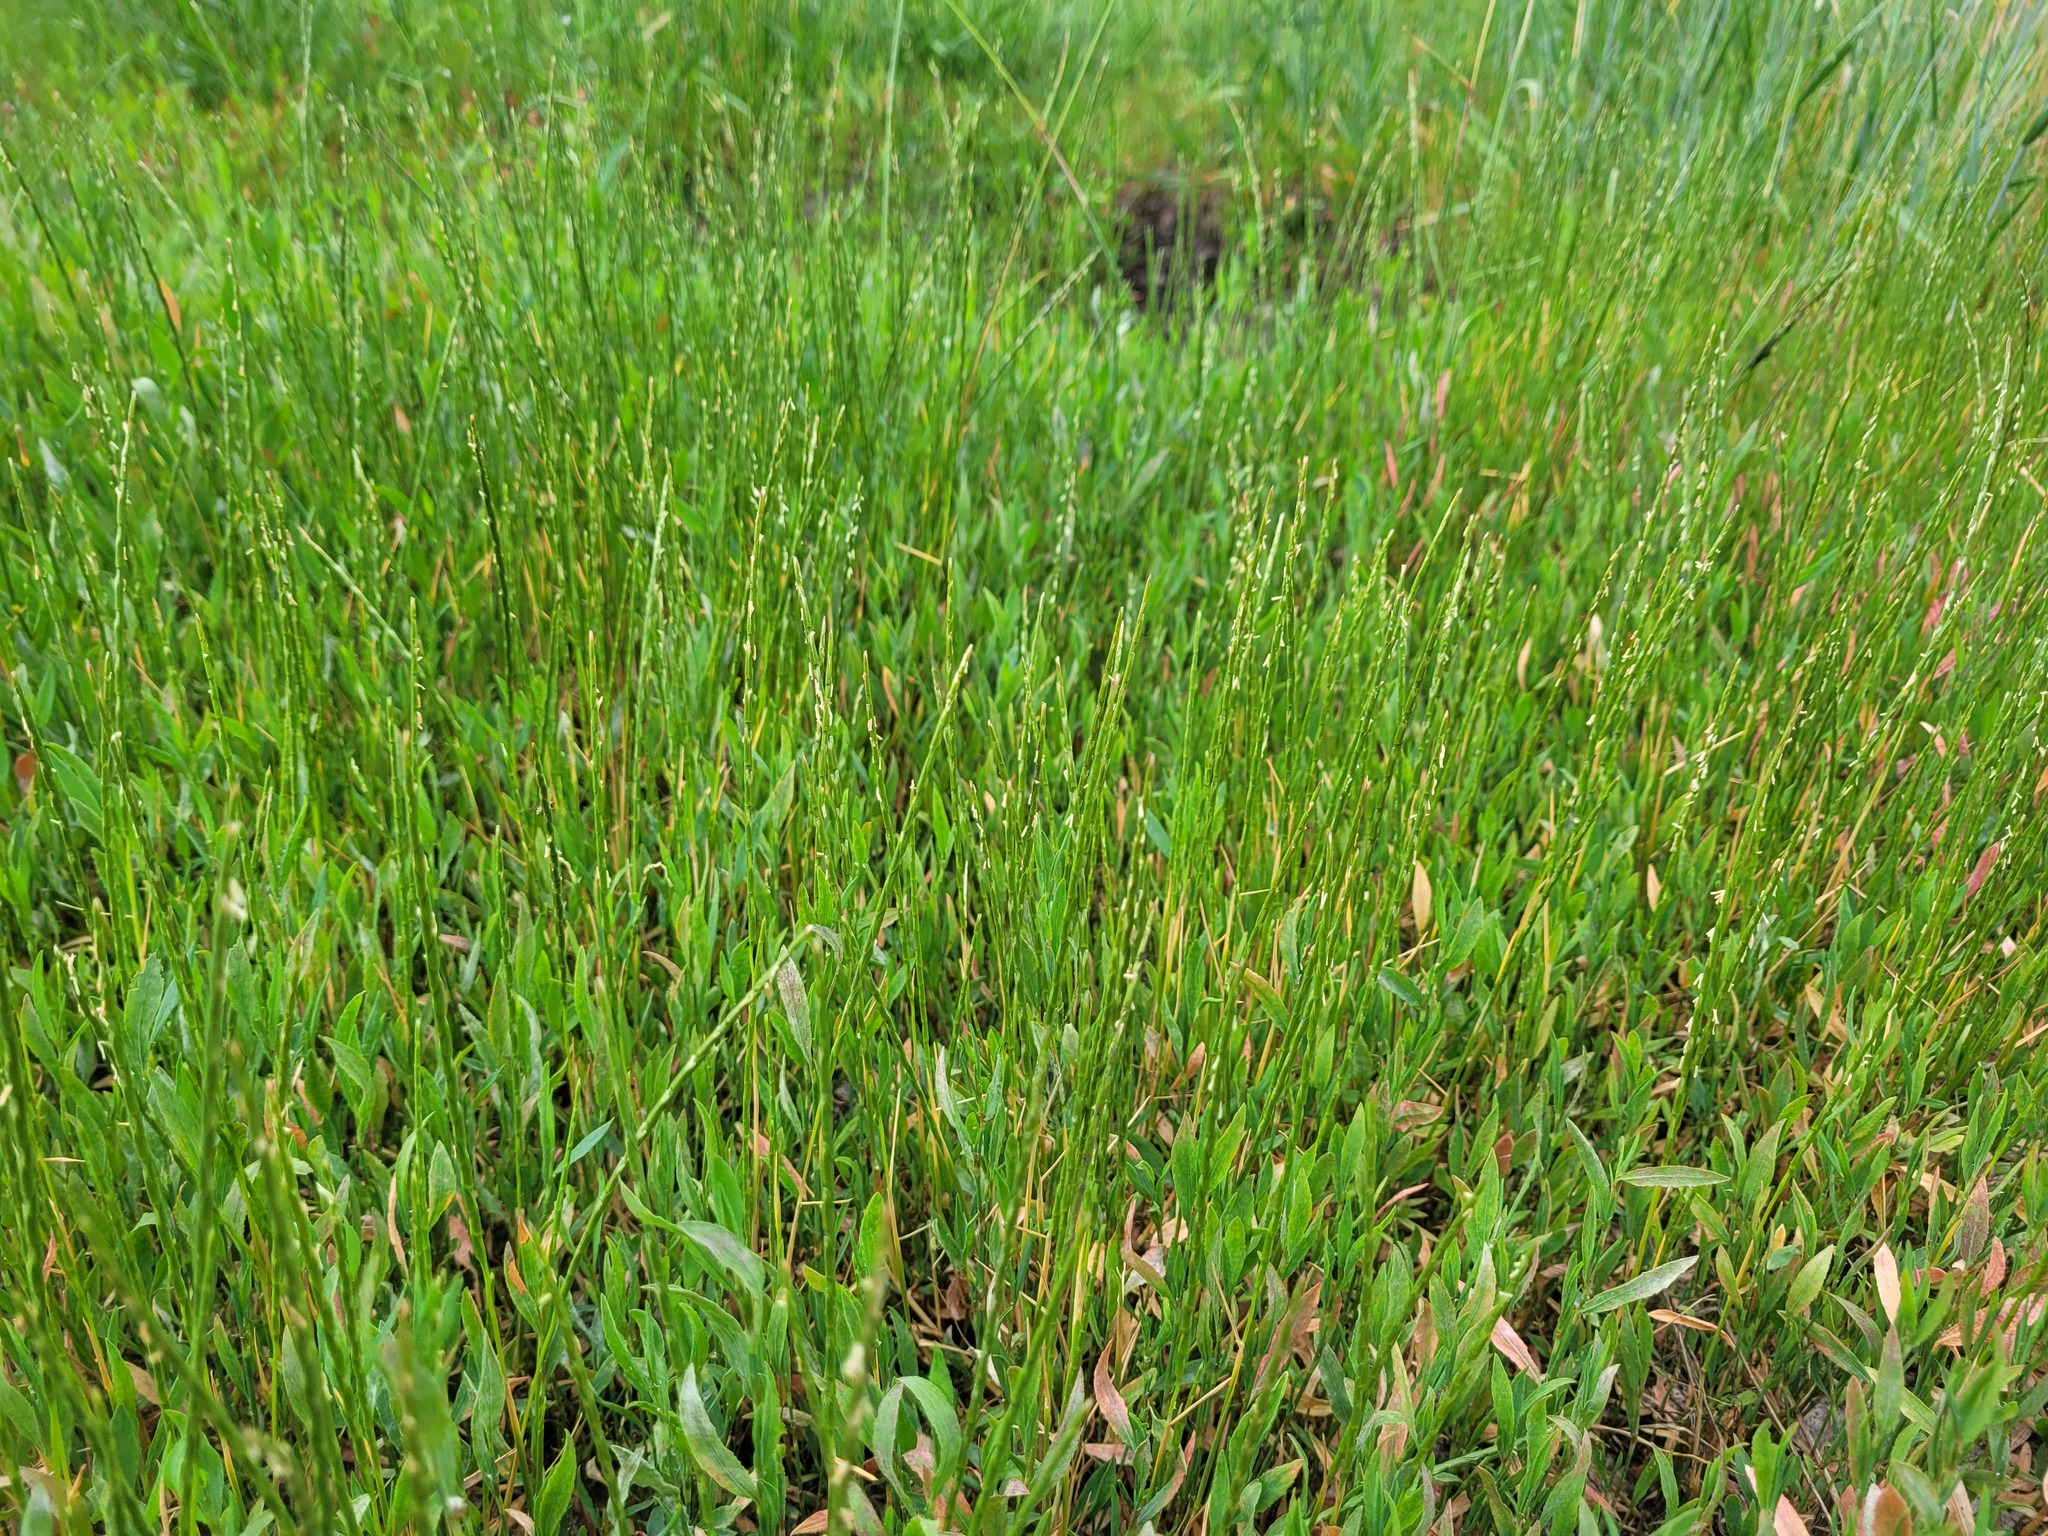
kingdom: Plantae
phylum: Tracheophyta
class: Liliopsida
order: Poales
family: Poaceae
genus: Pholiurus
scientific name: Pholiurus pannonicus
